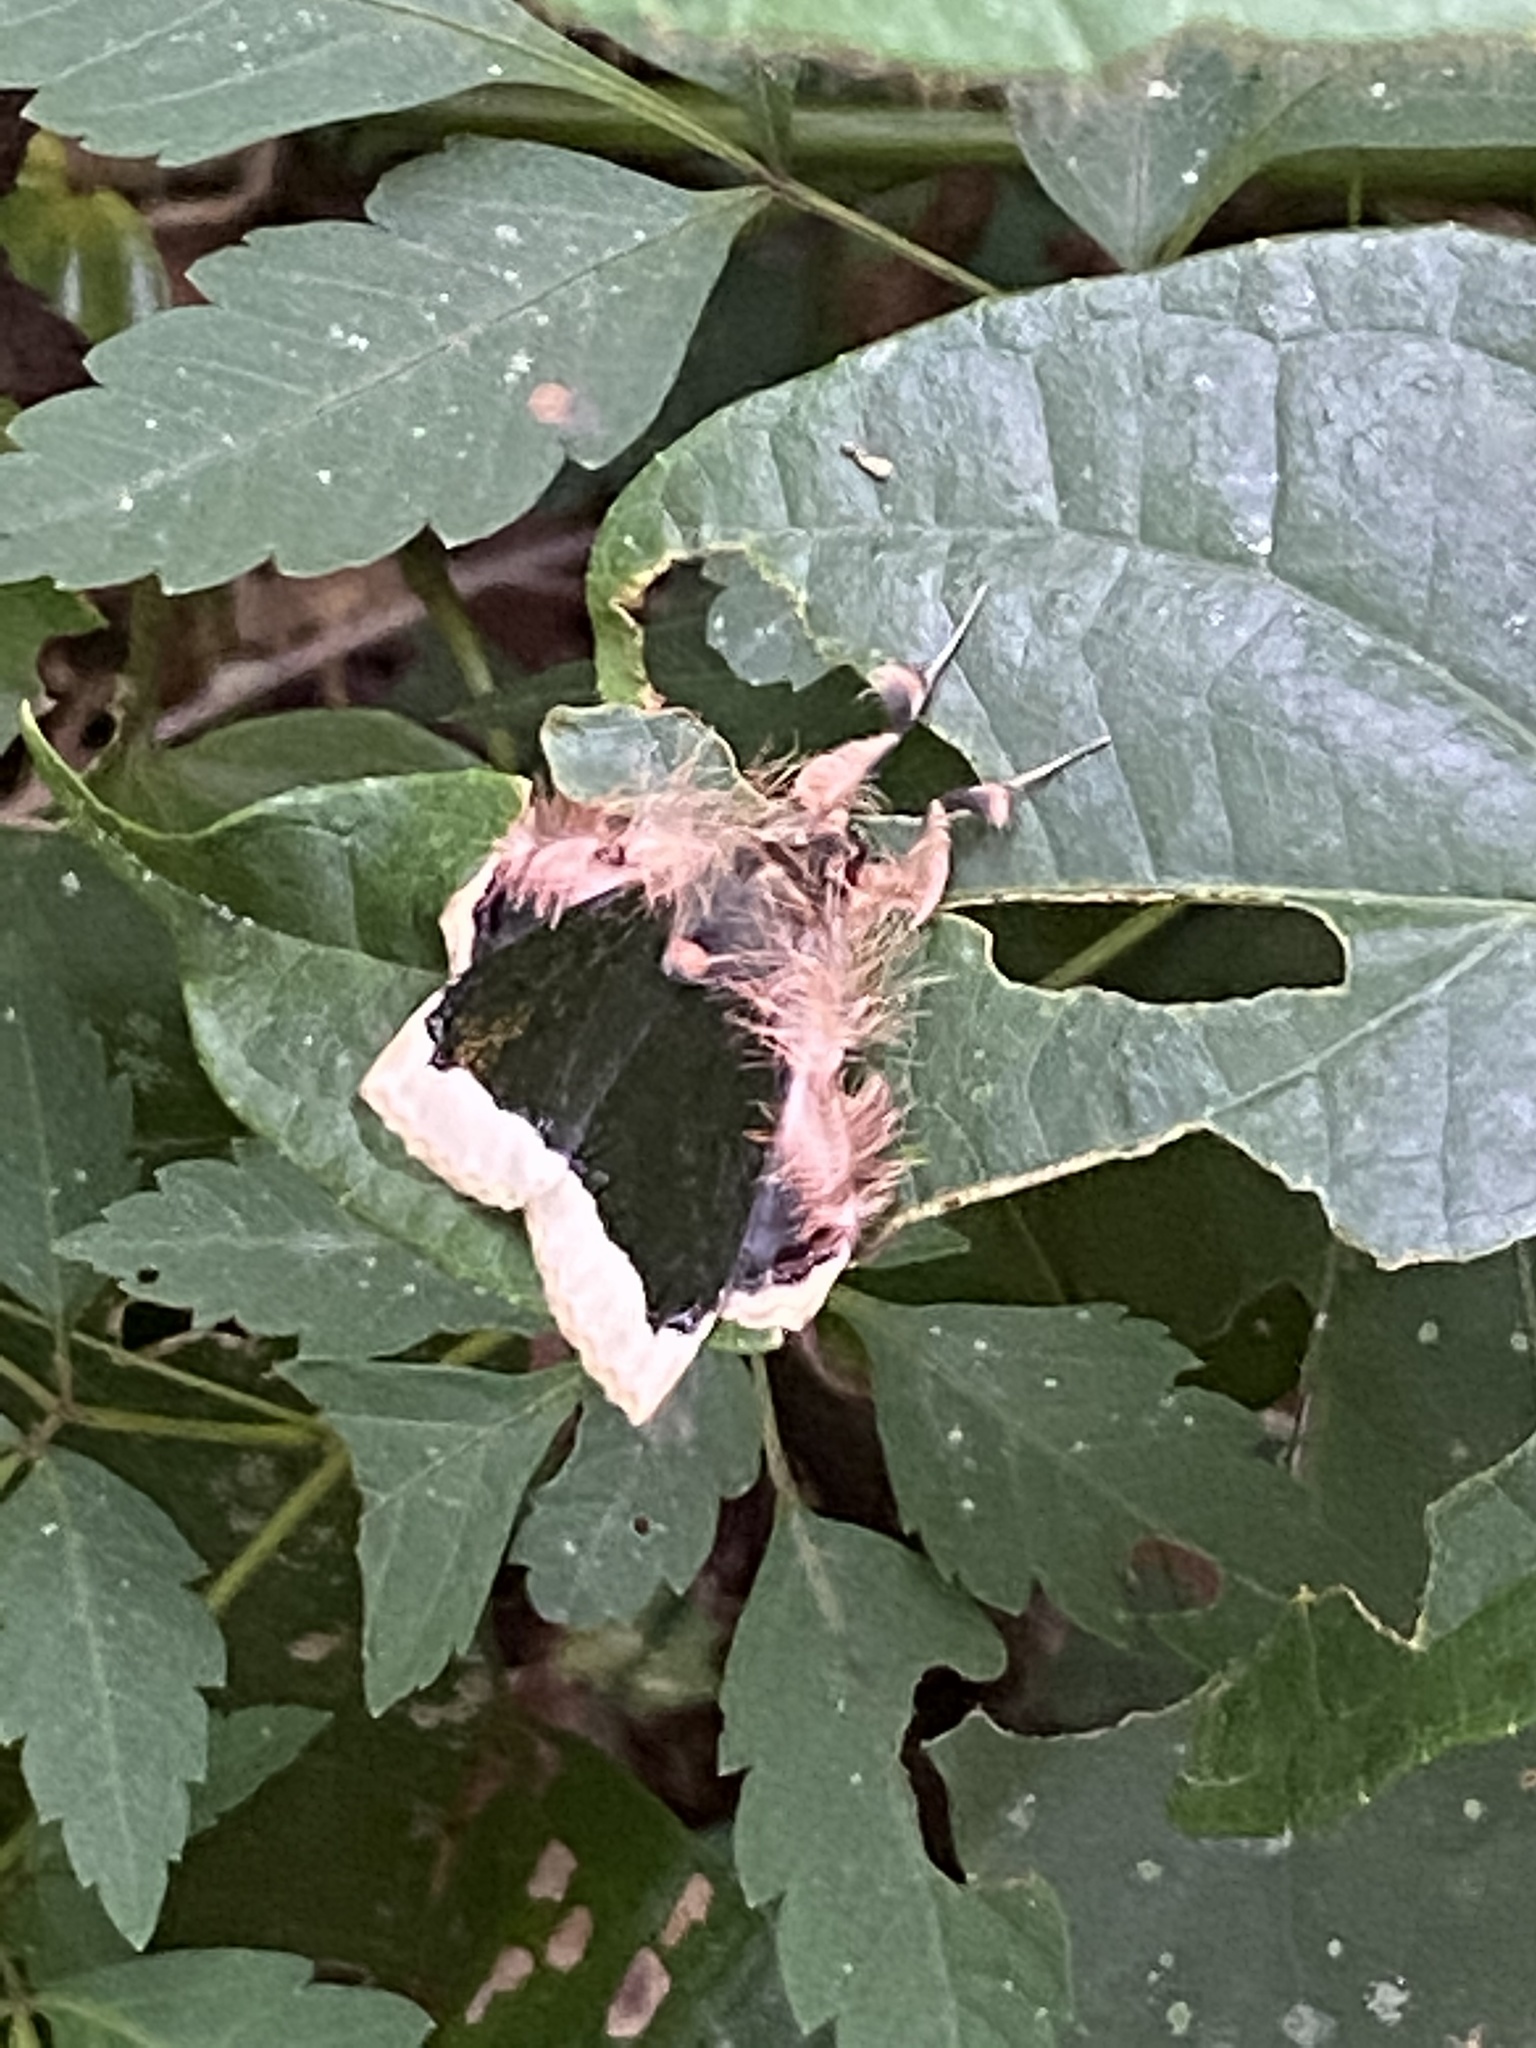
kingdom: Animalia
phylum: Arthropoda
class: Insecta
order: Lepidoptera
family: Erebidae
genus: Ceroctena
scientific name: Ceroctena amynta
